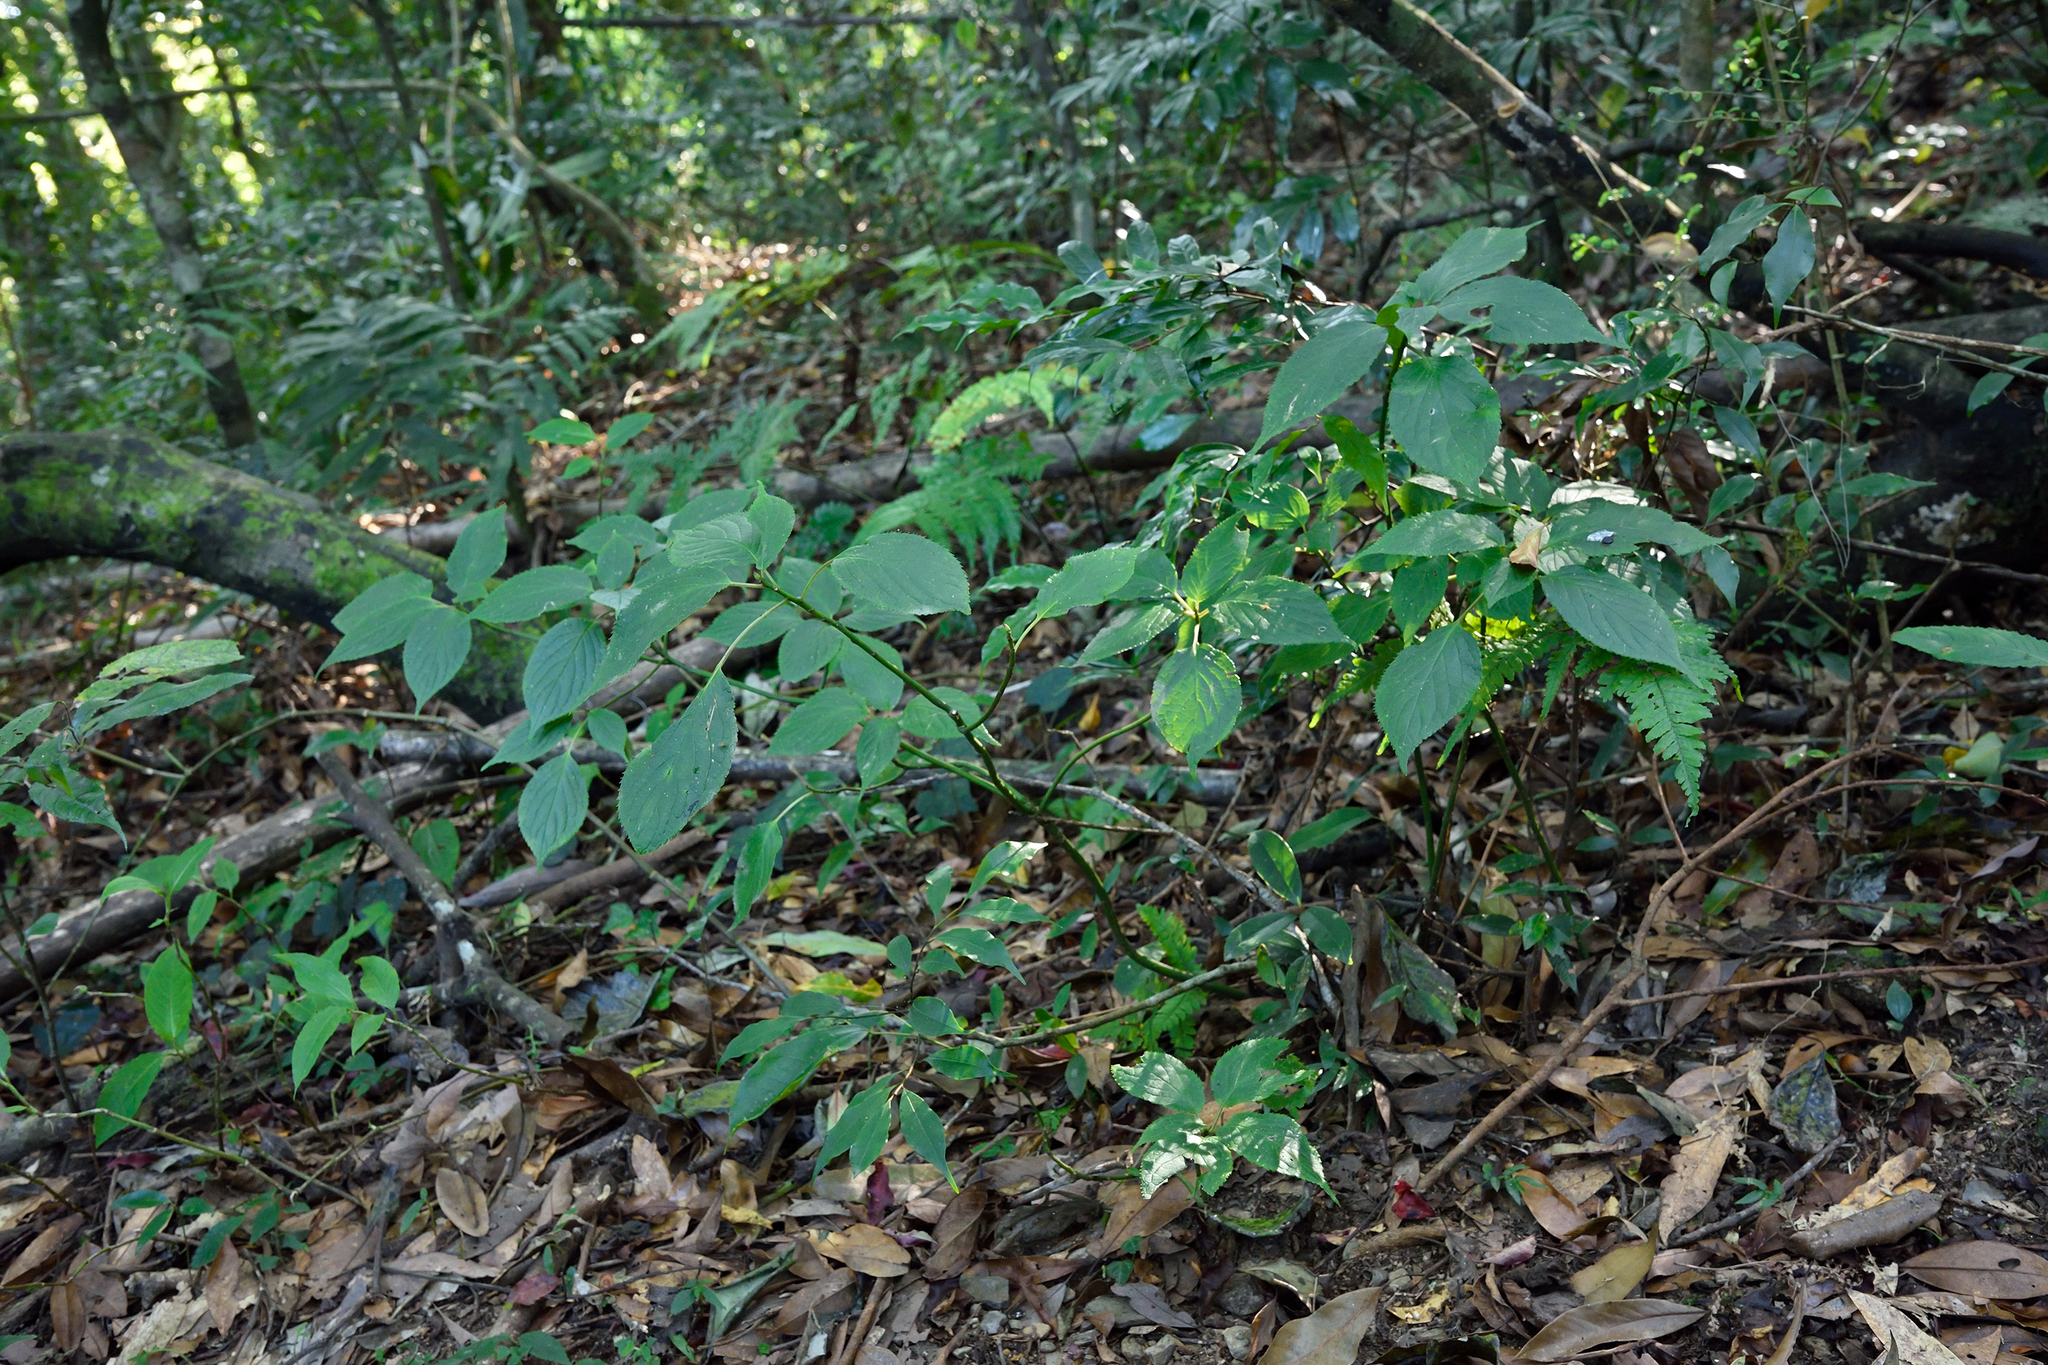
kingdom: Plantae
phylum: Tracheophyta
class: Magnoliopsida
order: Aquifoliales
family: Helwingiaceae
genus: Helwingia
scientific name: Helwingia japonica
